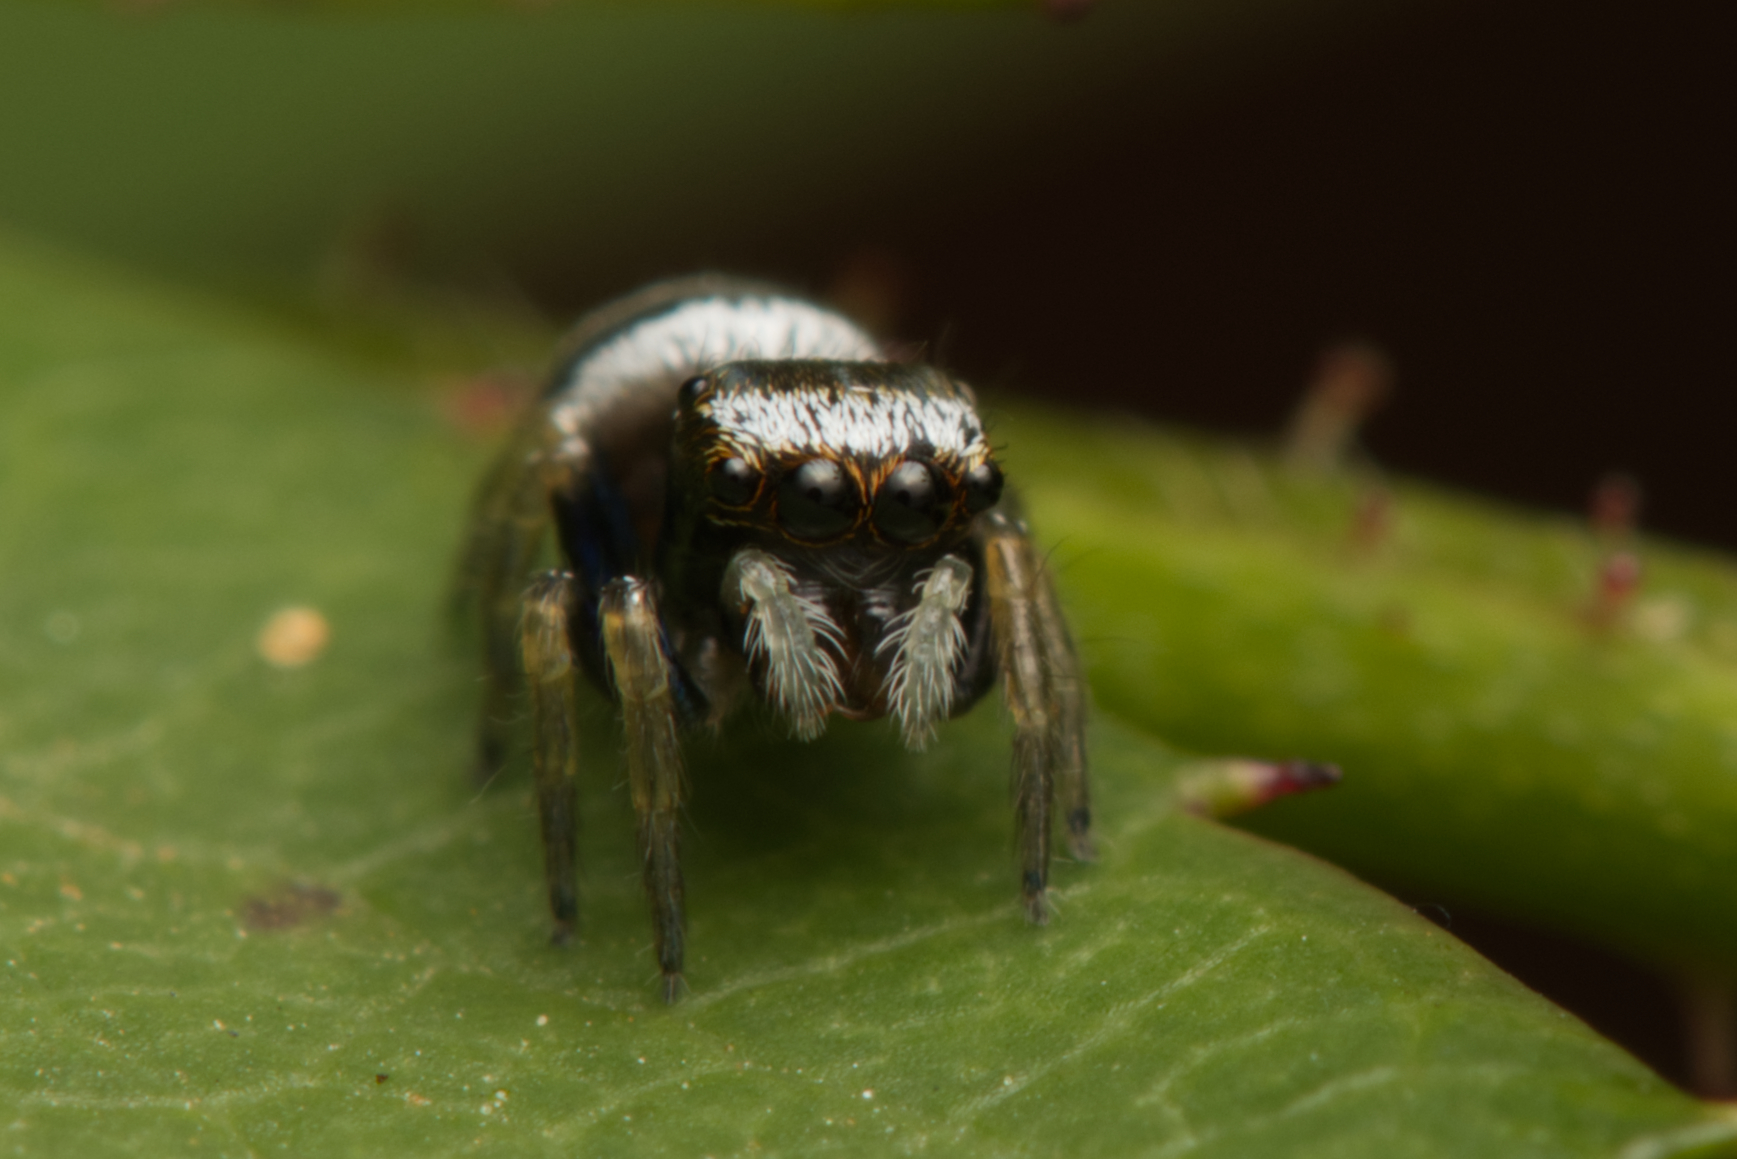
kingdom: Animalia
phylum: Arthropoda
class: Arachnida
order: Araneae
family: Salticidae
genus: Euryattus
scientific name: Euryattus bleekeri
